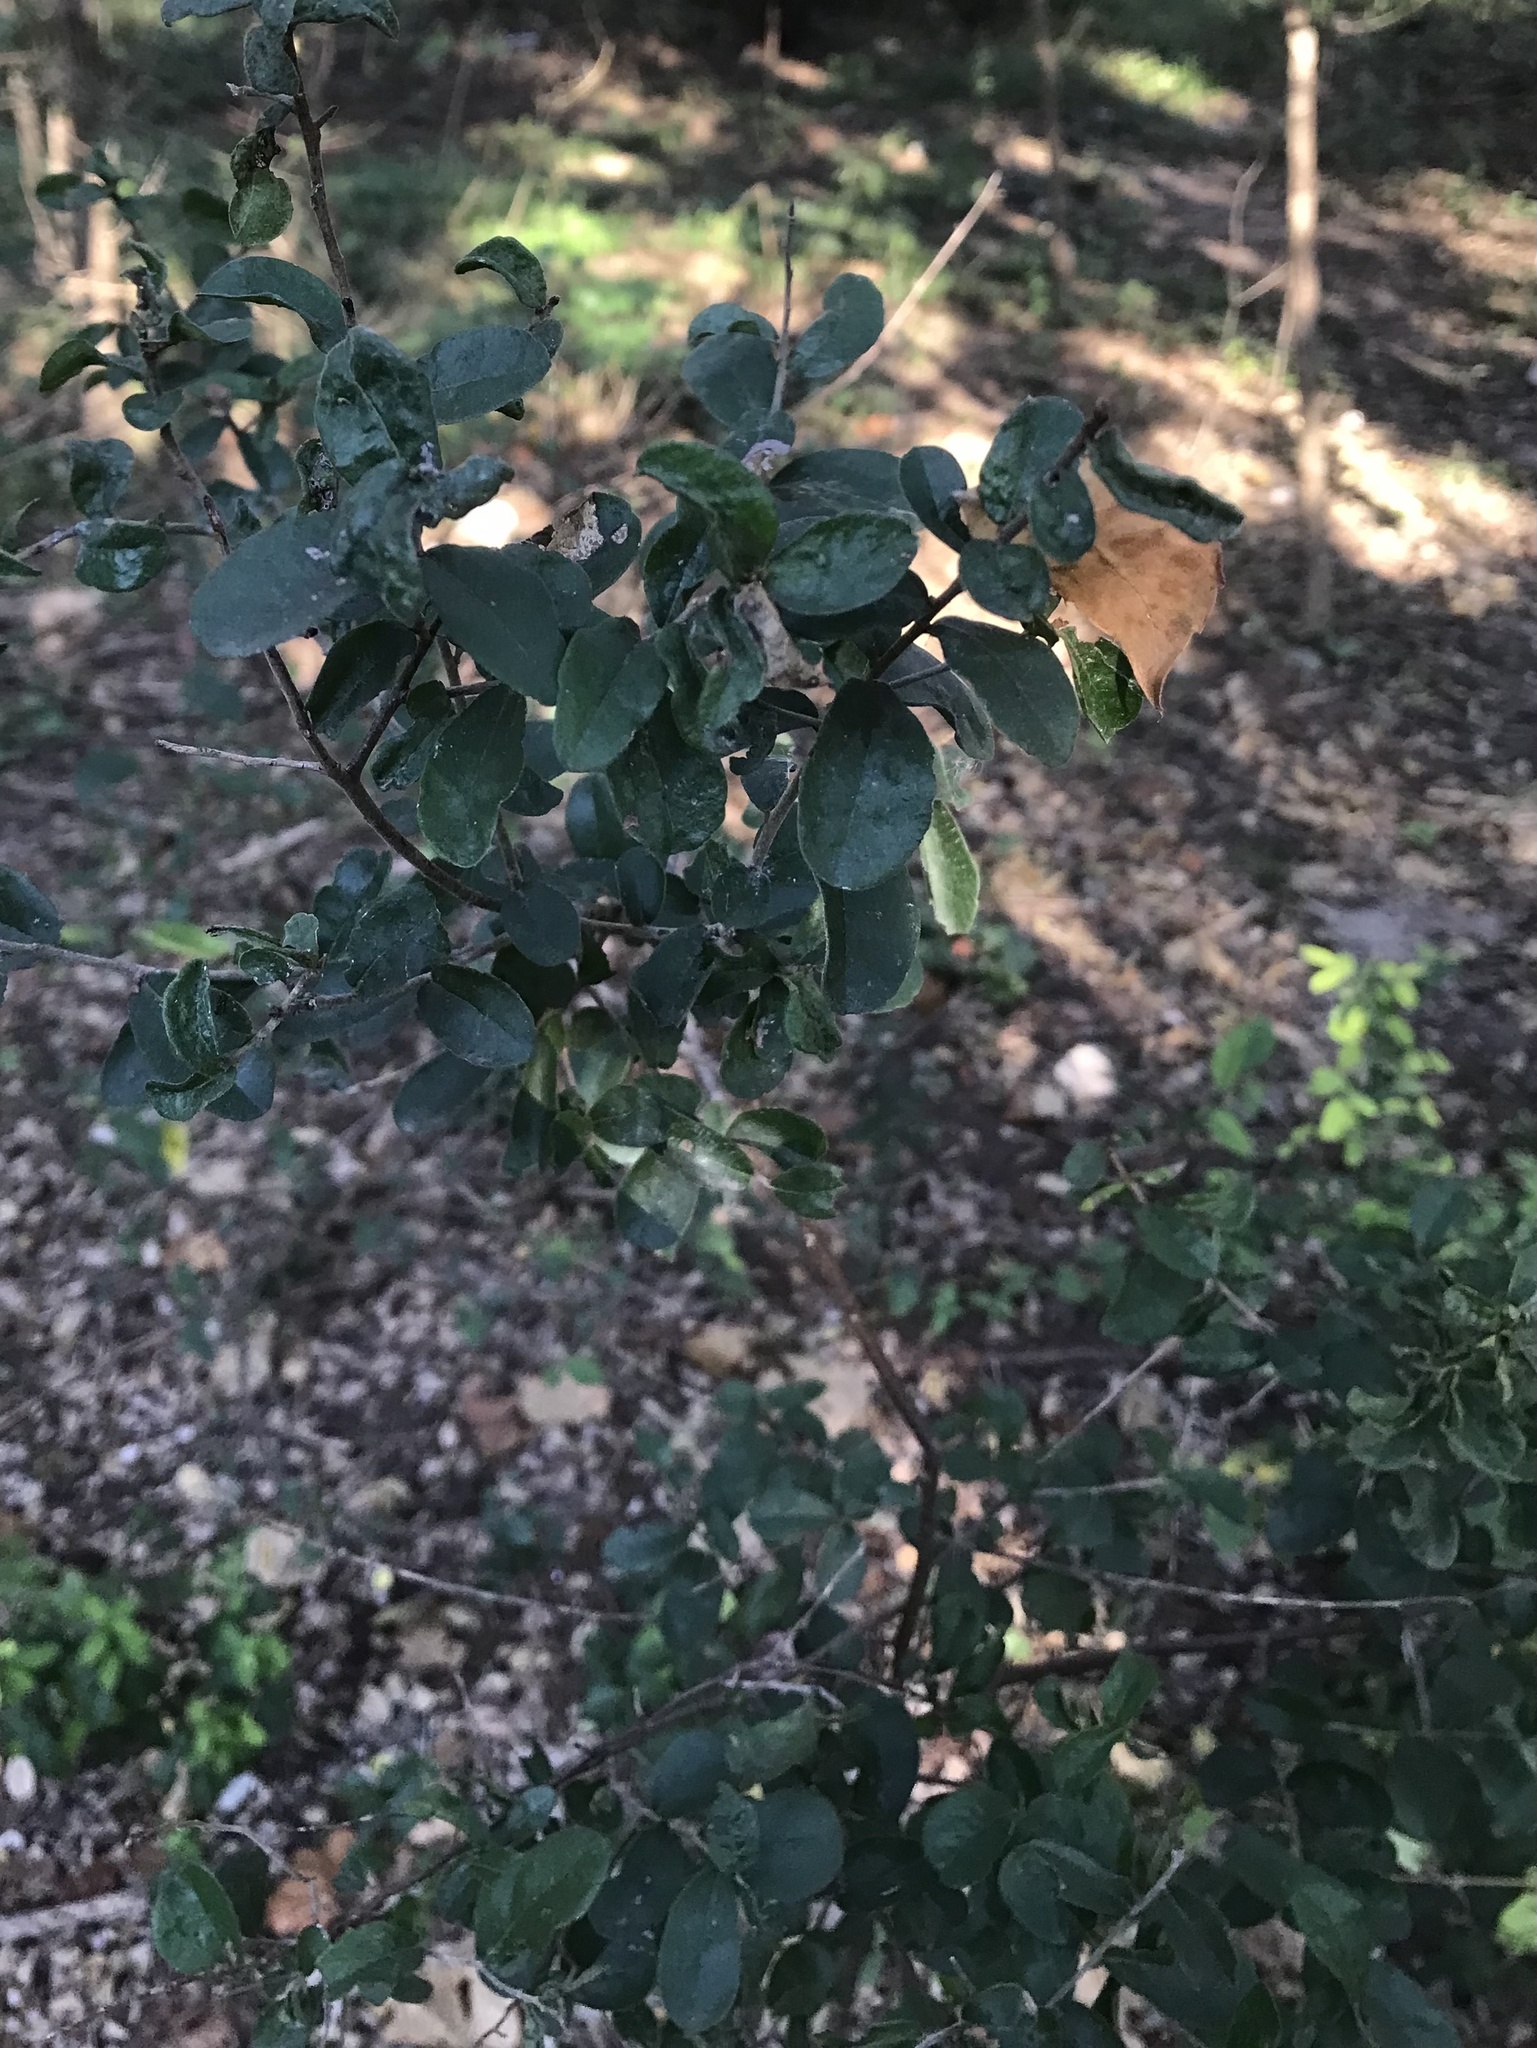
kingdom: Plantae
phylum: Tracheophyta
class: Magnoliopsida
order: Ericales
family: Ebenaceae
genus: Diospyros
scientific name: Diospyros texana
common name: Texas persimmon
